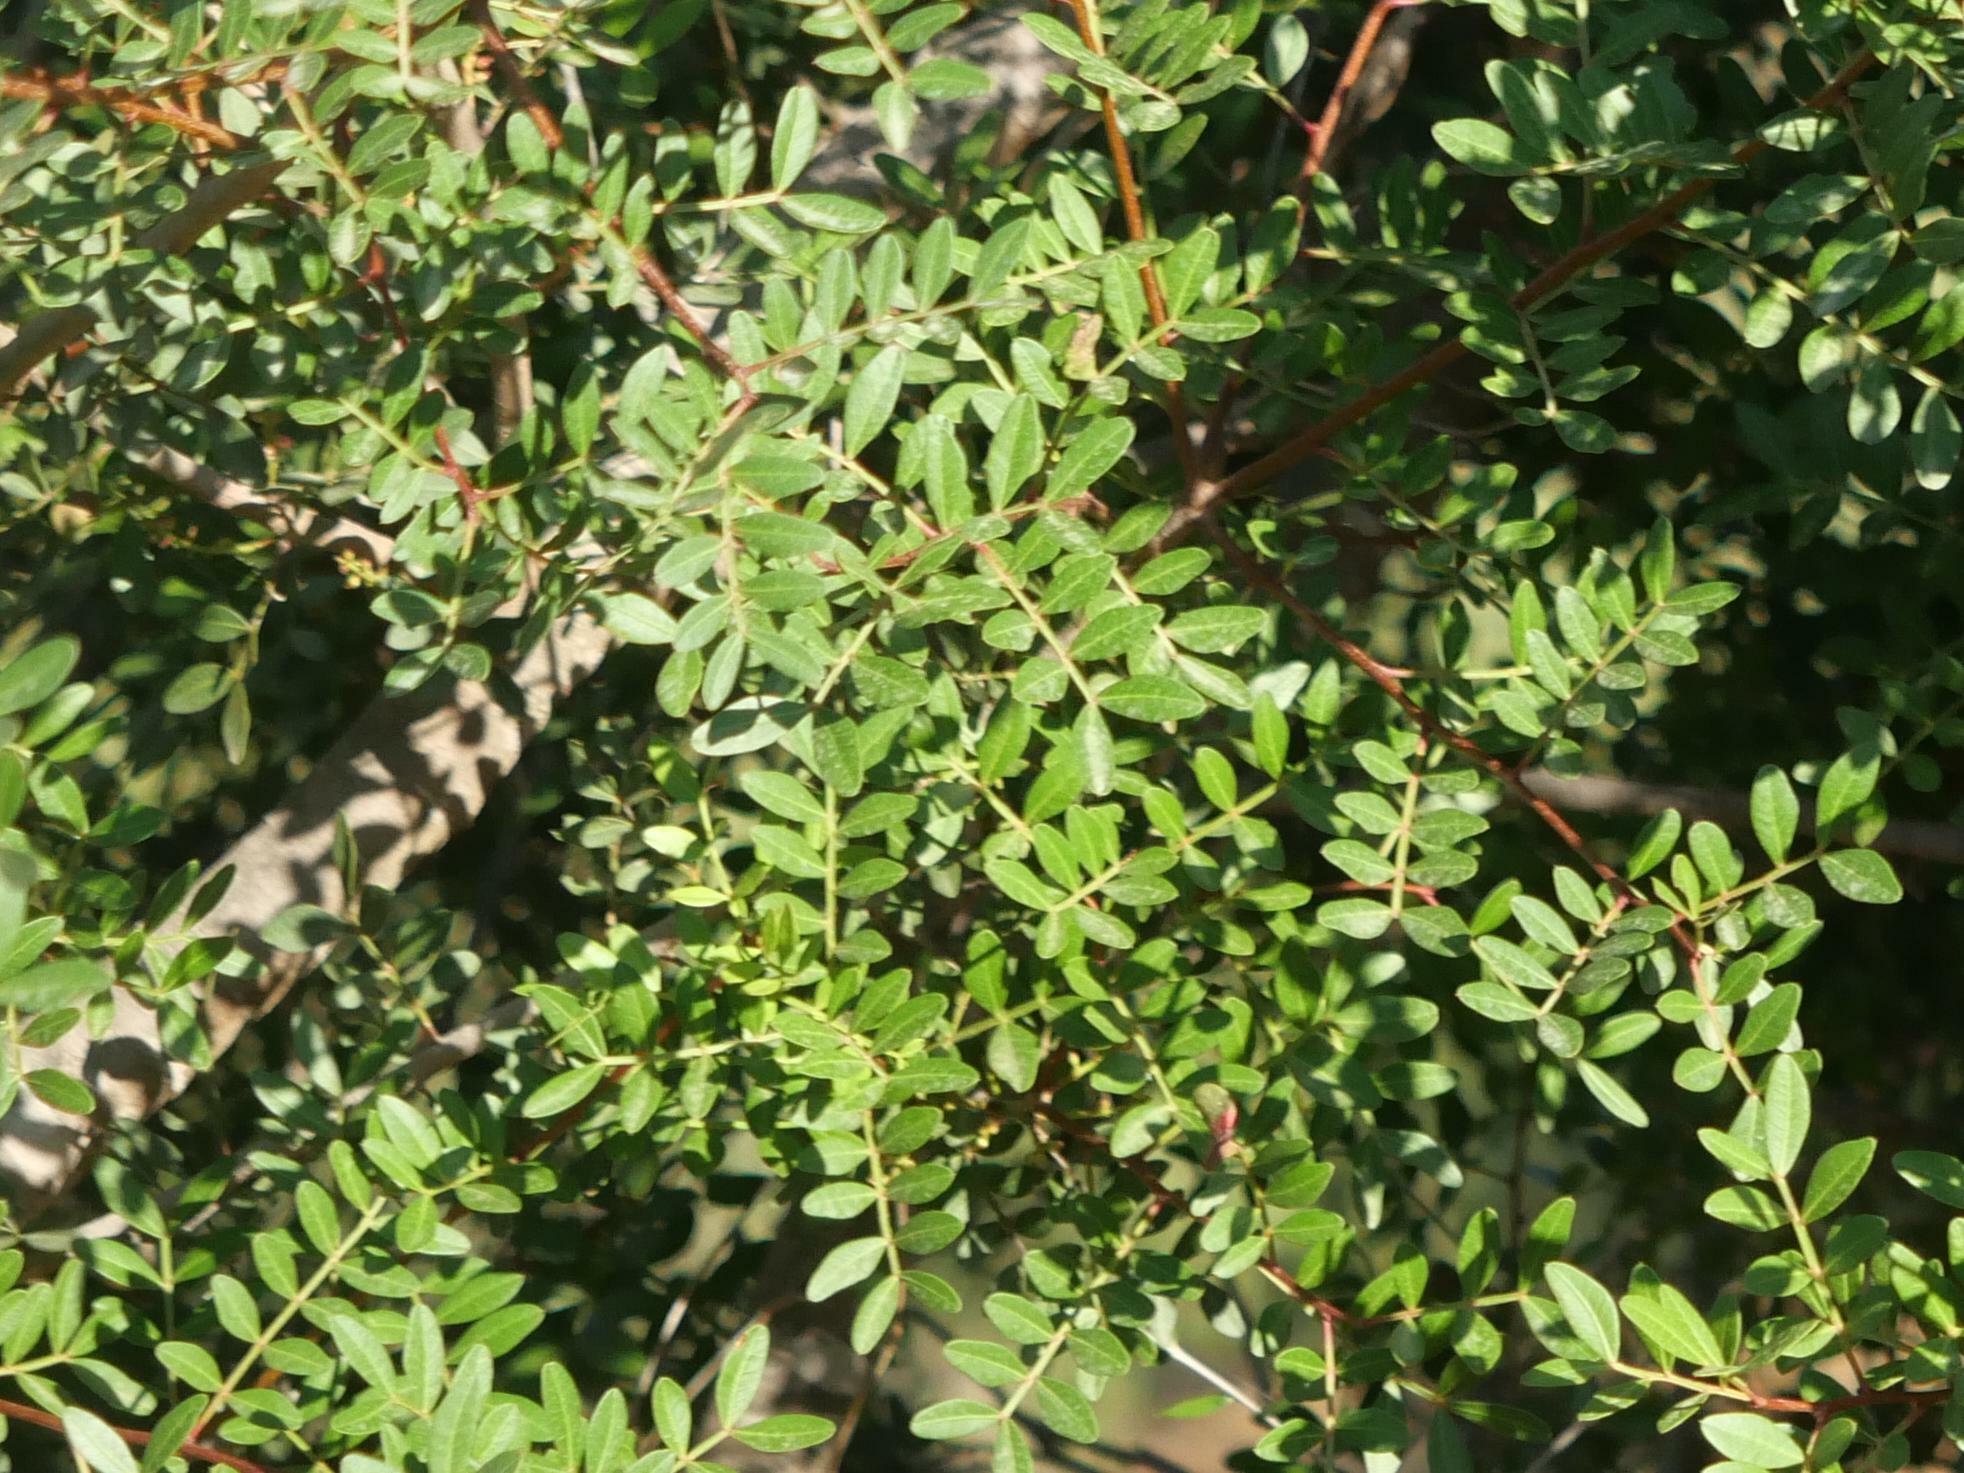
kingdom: Plantae
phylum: Tracheophyta
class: Magnoliopsida
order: Sapindales
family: Anacardiaceae
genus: Pistacia
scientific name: Pistacia lentiscus
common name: Lentisk
